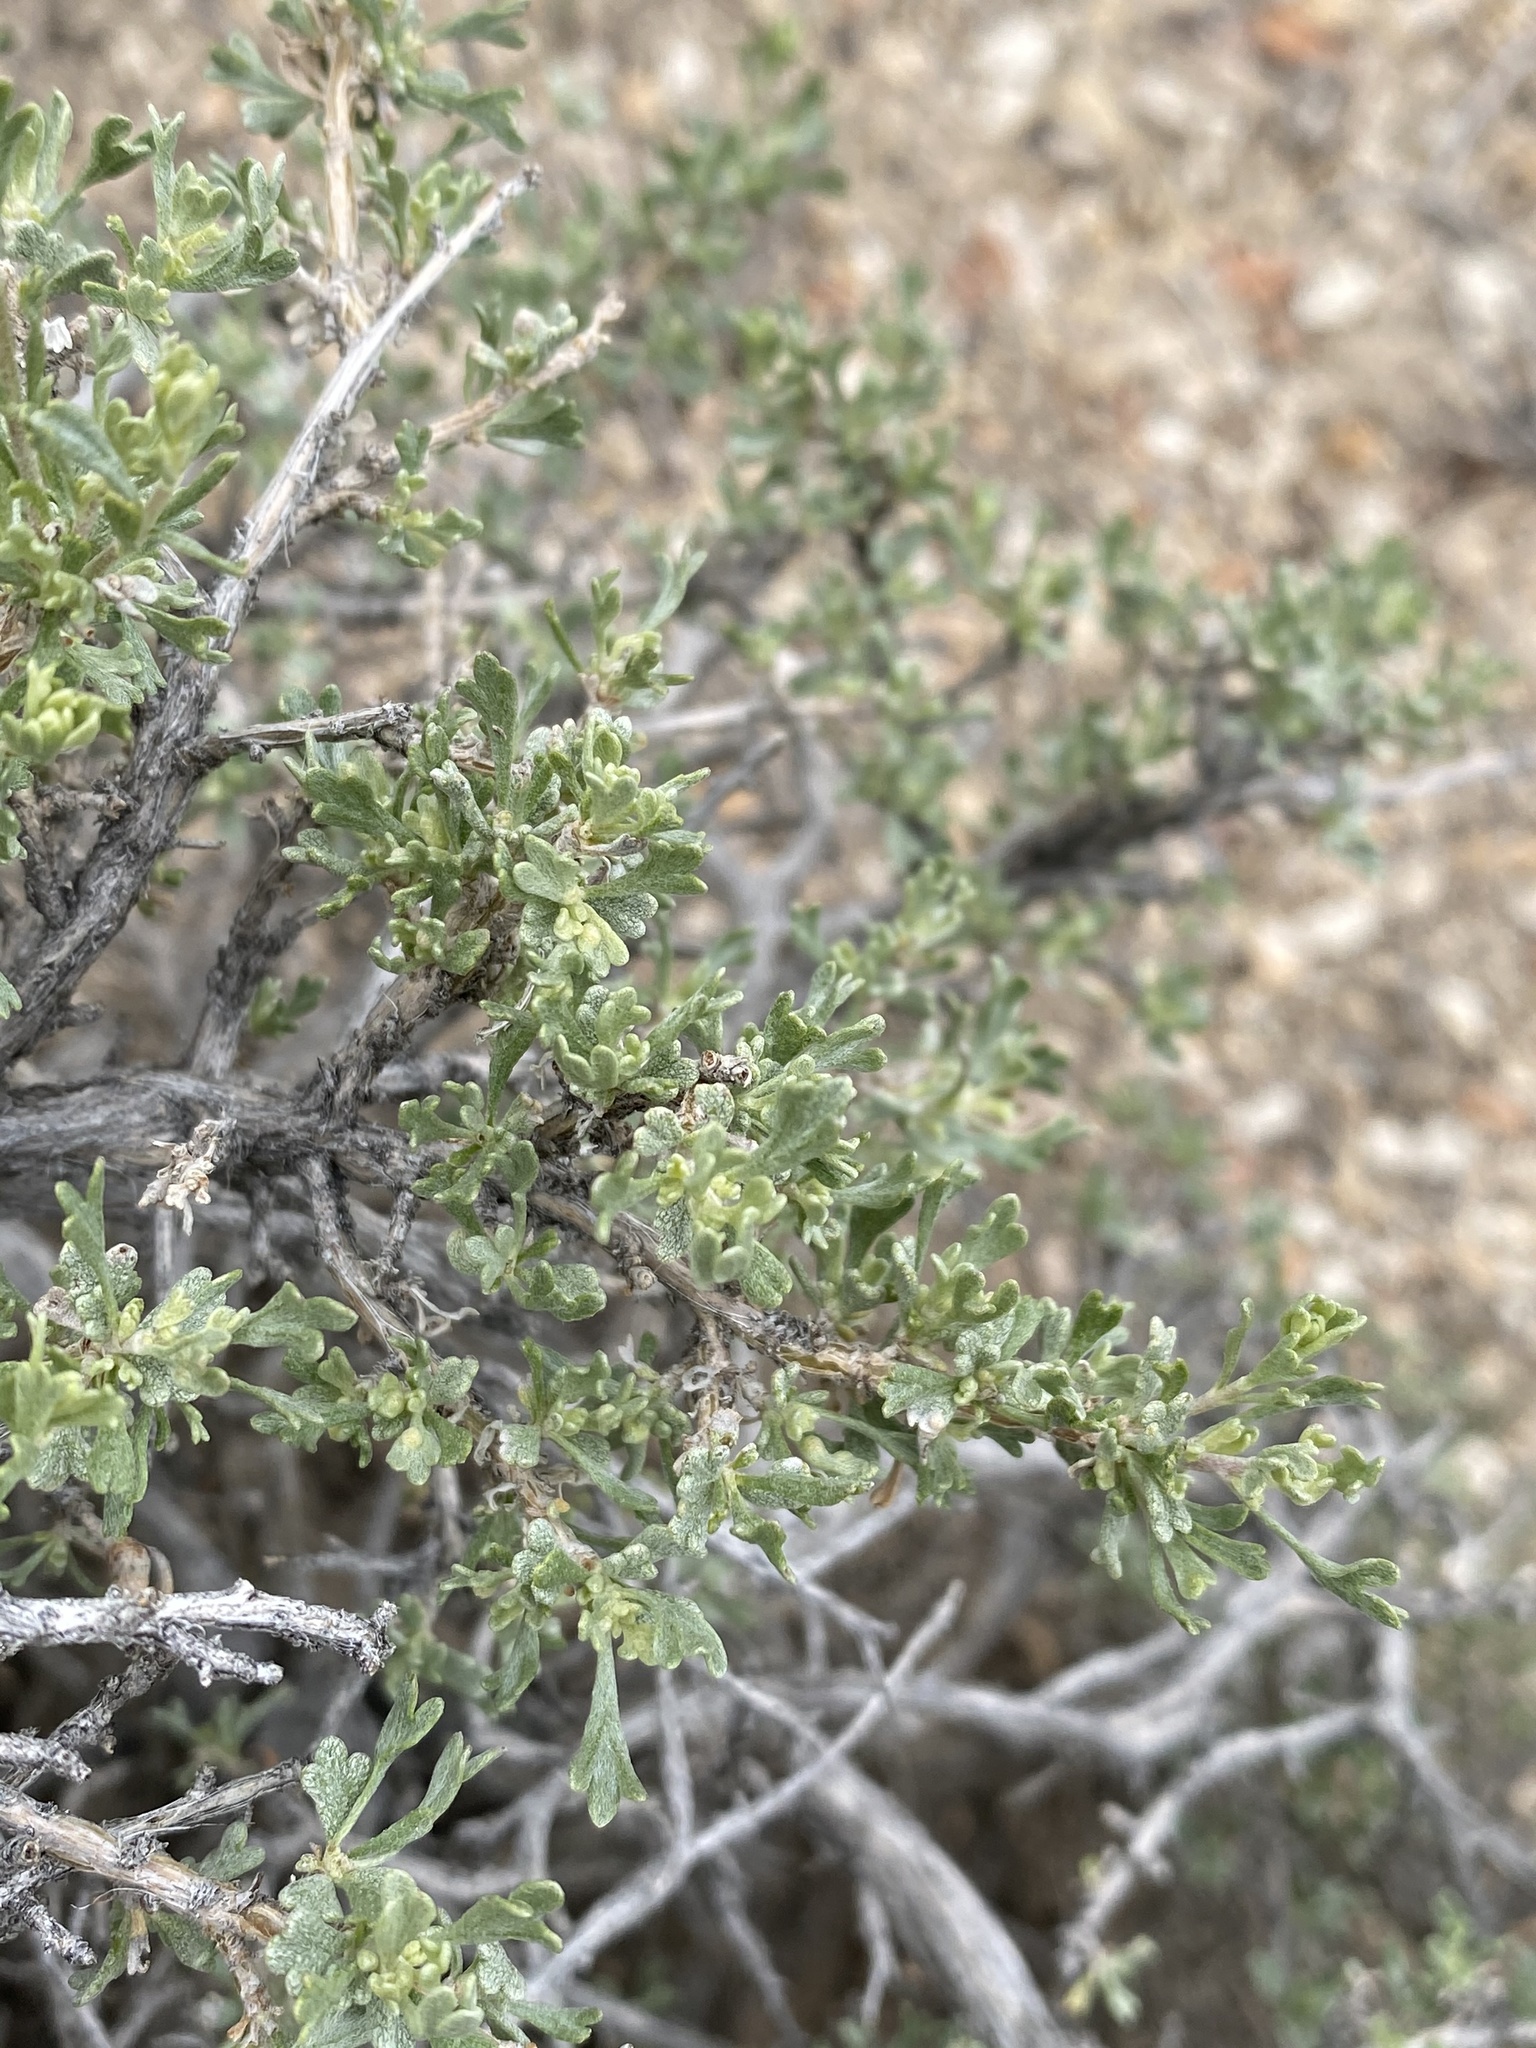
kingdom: Plantae
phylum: Tracheophyta
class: Magnoliopsida
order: Asterales
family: Asteraceae
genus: Artemisia
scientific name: Artemisia nova
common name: Black-sage
